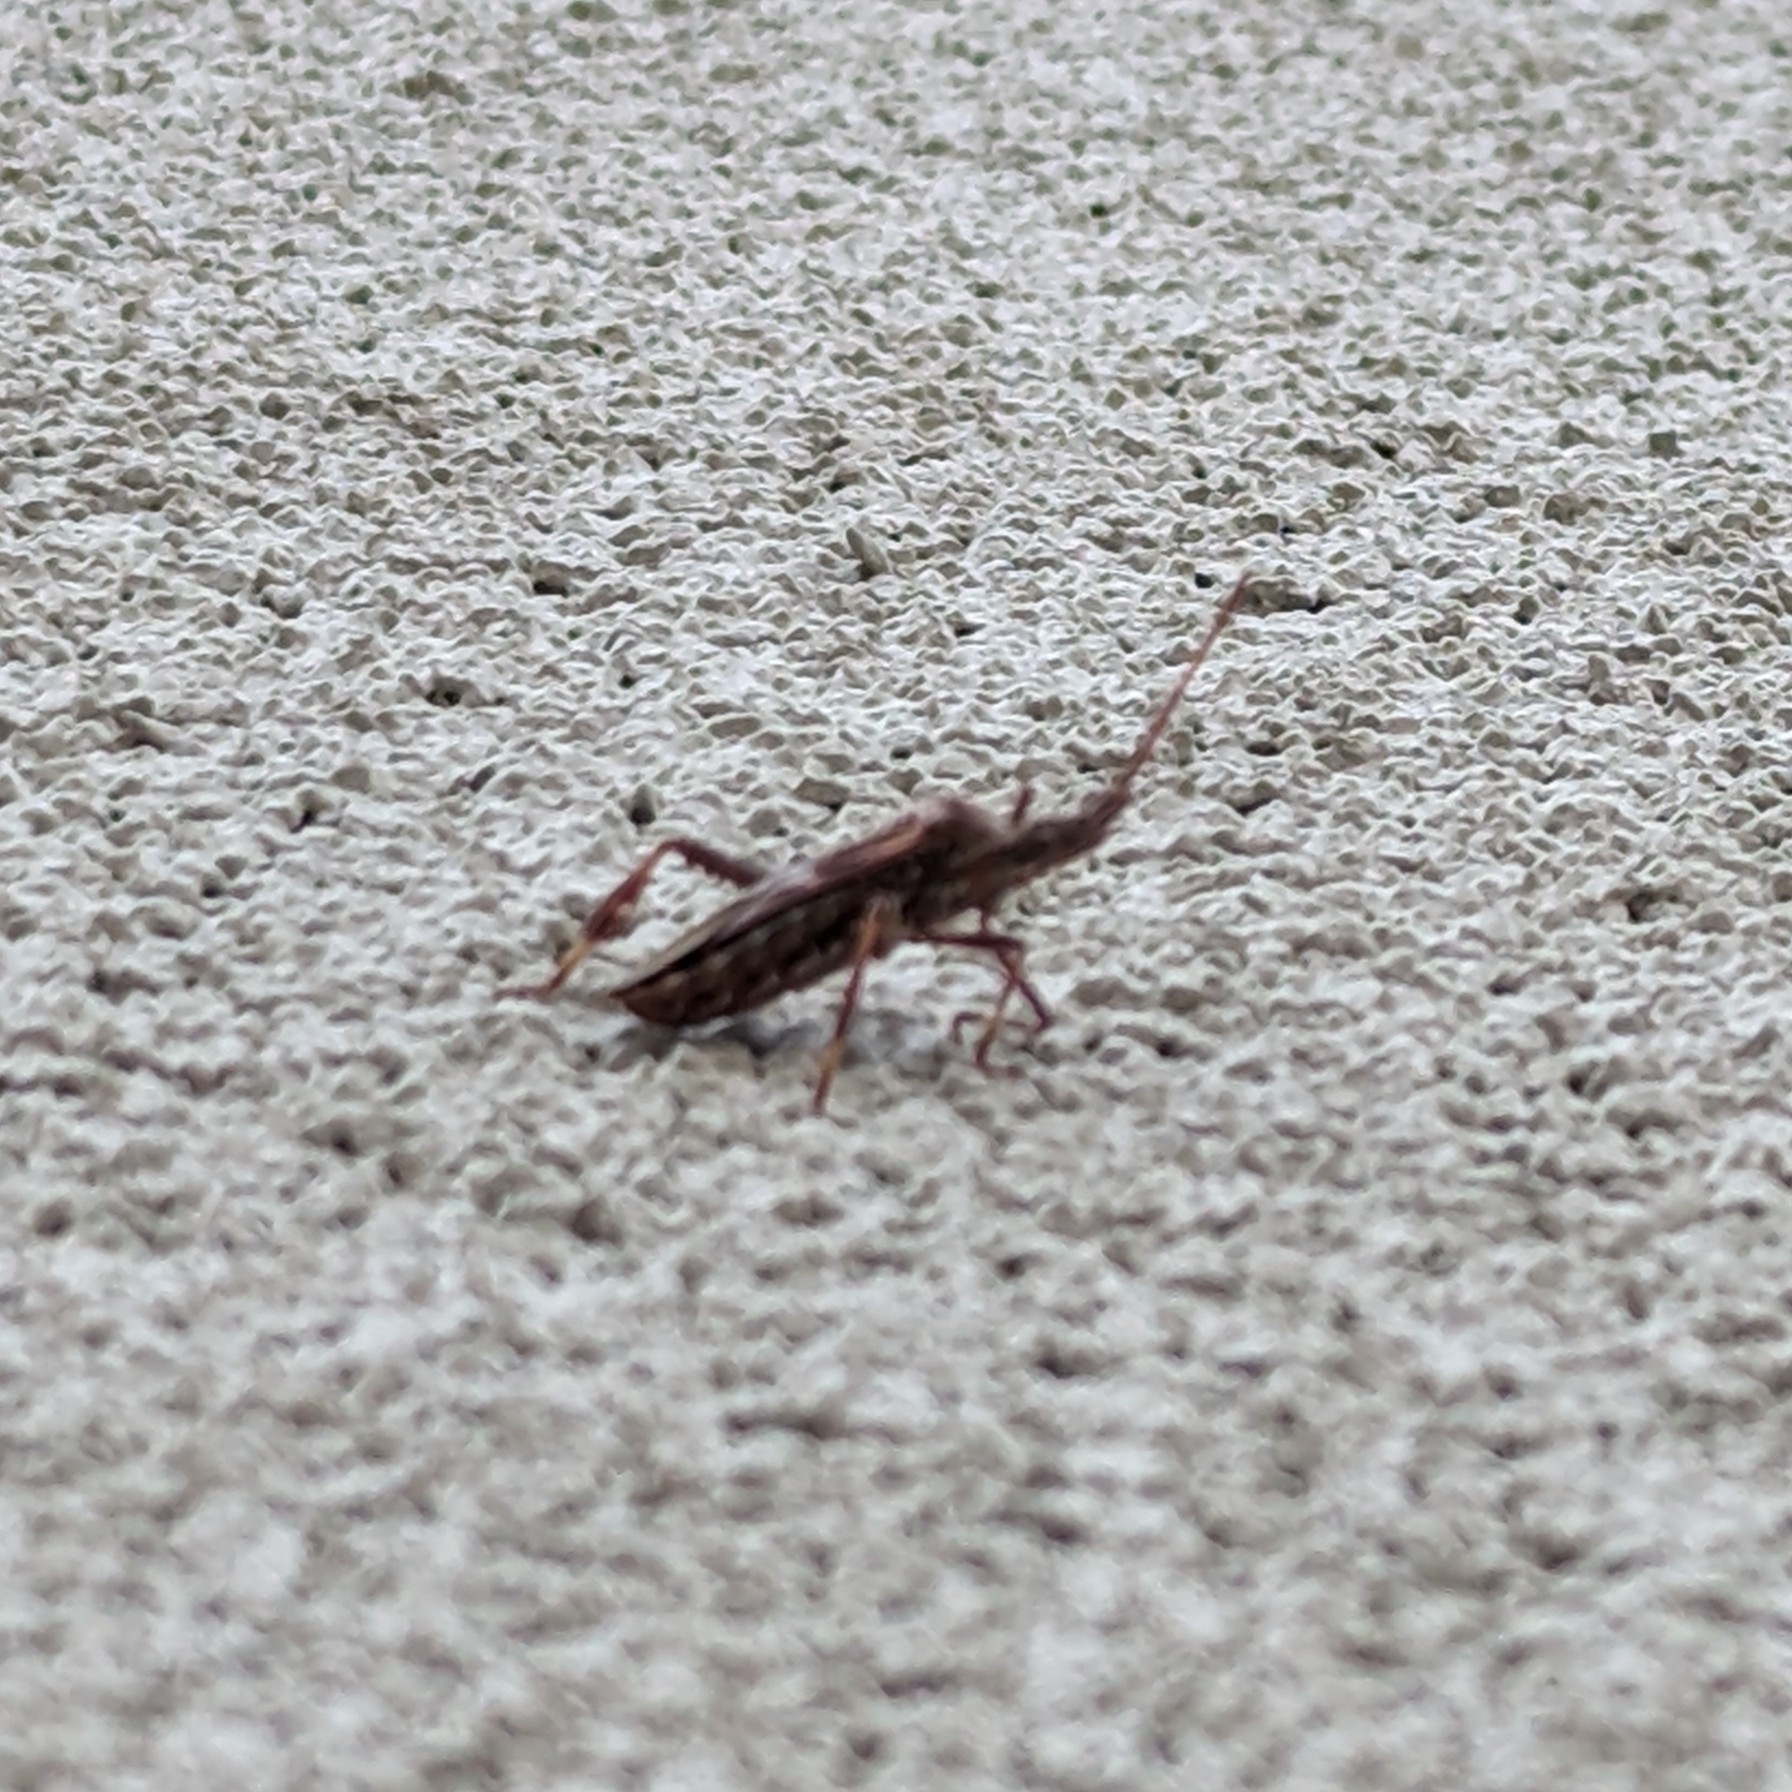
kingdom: Animalia
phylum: Arthropoda
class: Insecta
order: Hemiptera
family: Coreidae
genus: Leptoglossus
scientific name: Leptoglossus occidentalis
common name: Western conifer-seed bug
